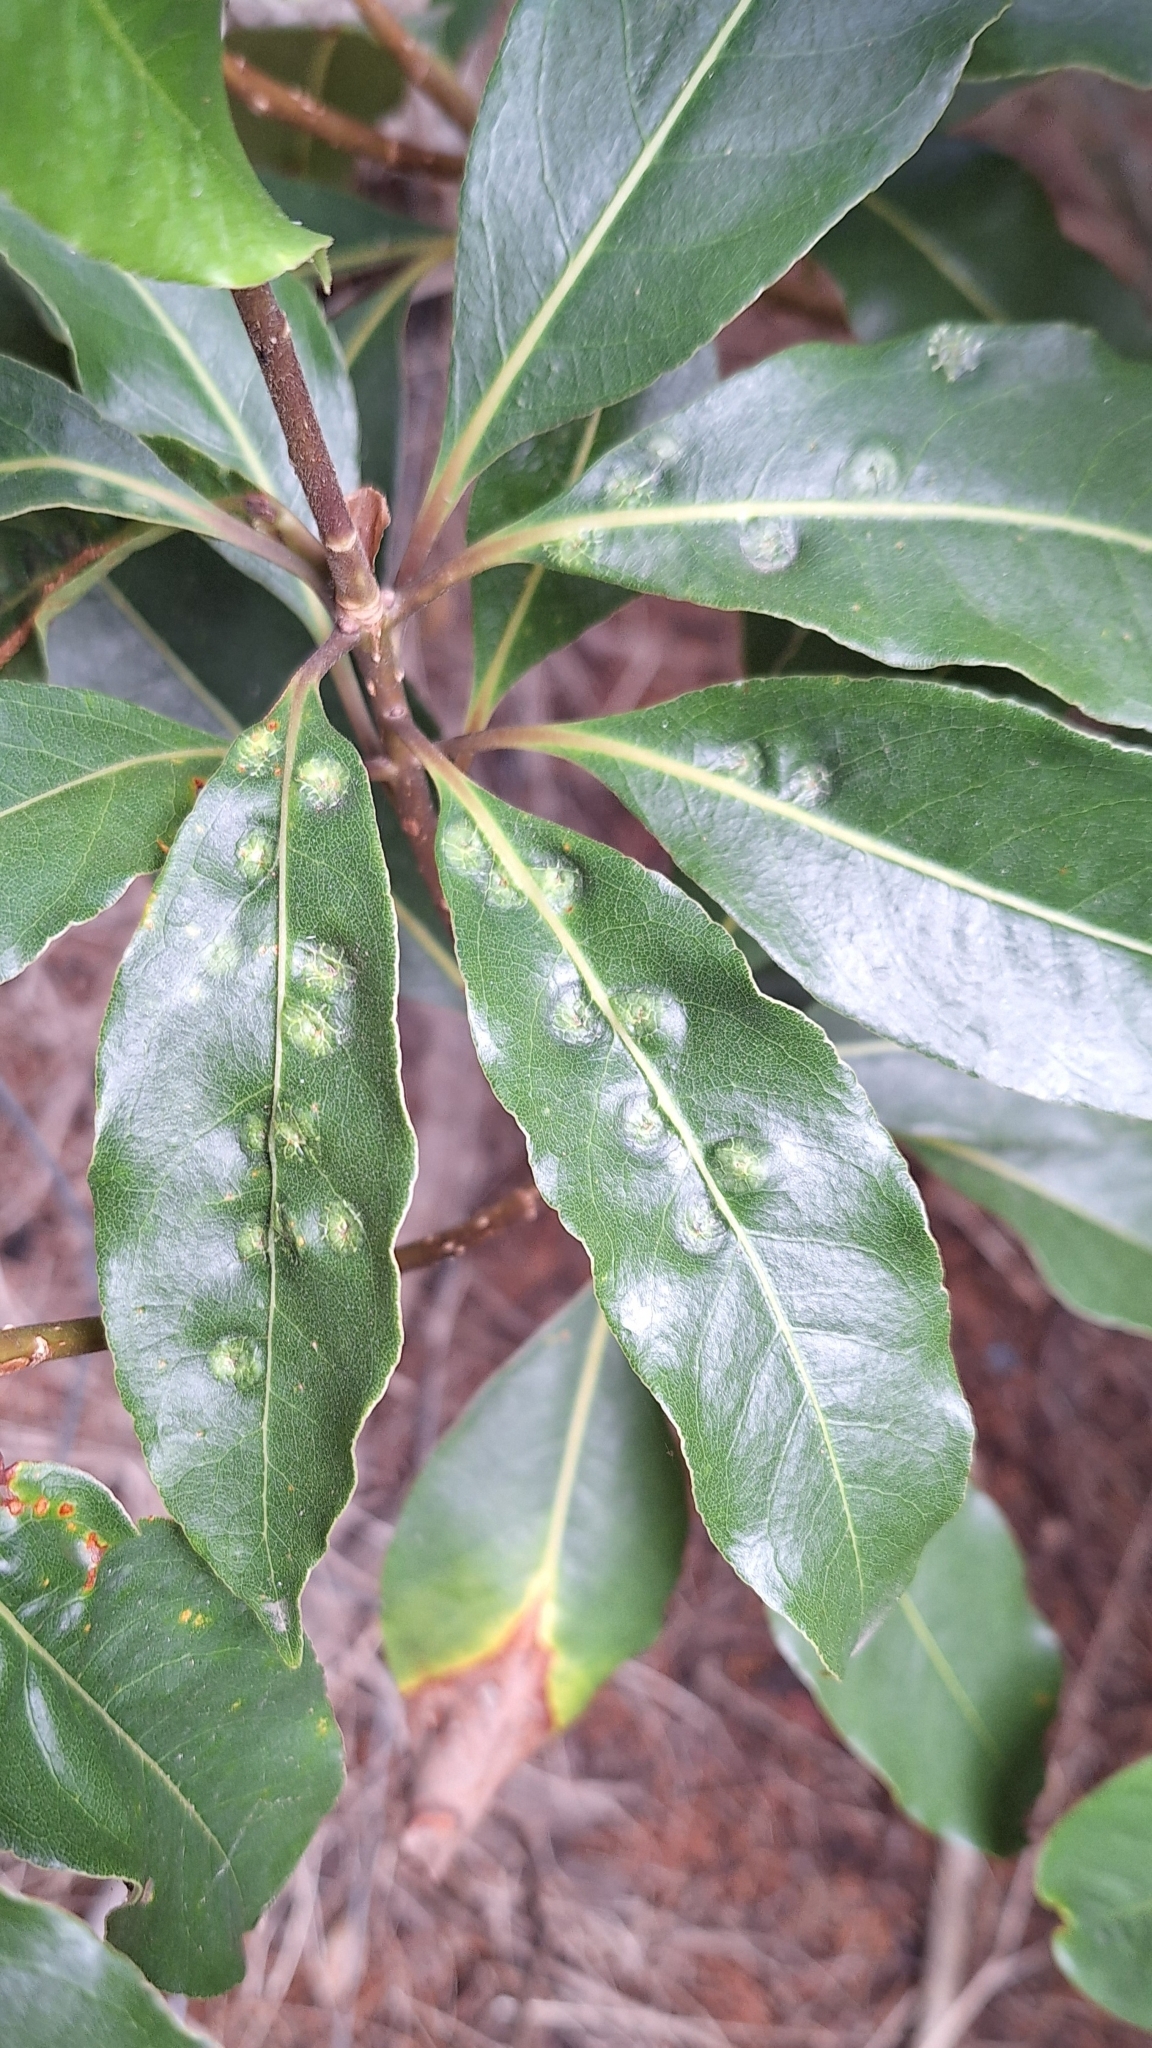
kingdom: Animalia
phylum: Arthropoda
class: Insecta
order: Diptera
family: Agromyzidae
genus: Phytoliriomyza
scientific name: Phytoliriomyza pittosporophylli
